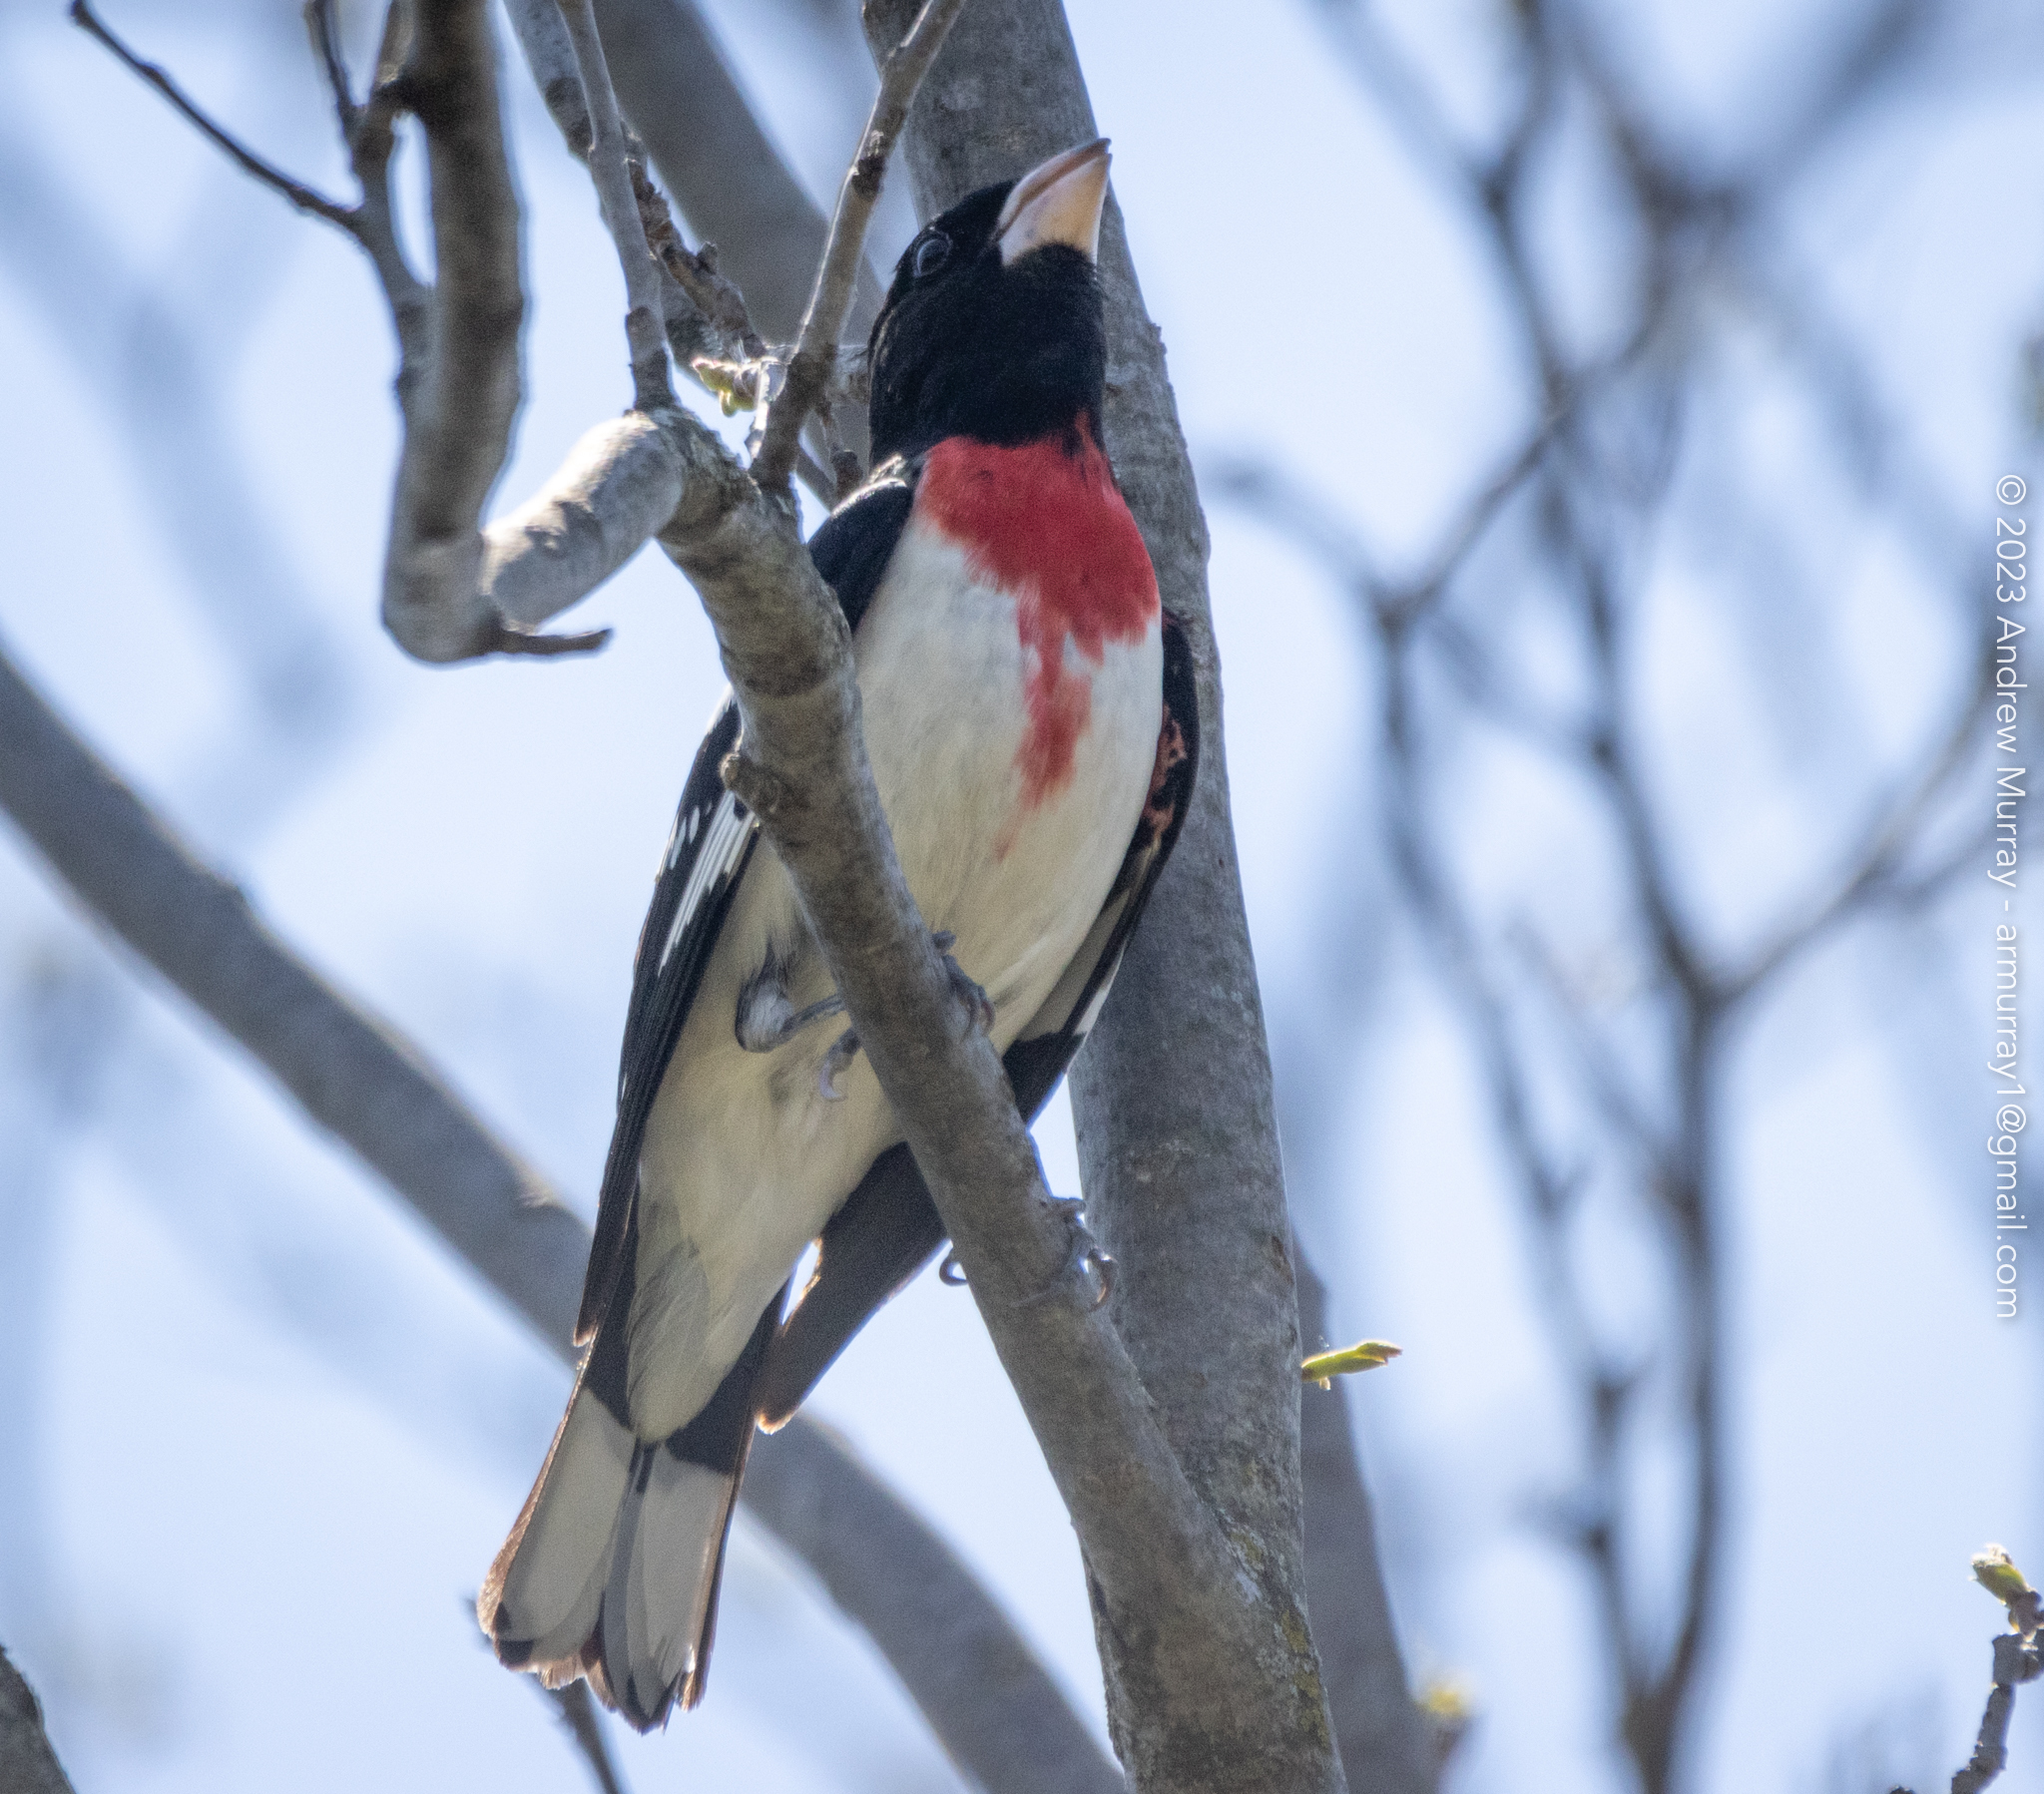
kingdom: Animalia
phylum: Chordata
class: Aves
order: Passeriformes
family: Cardinalidae
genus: Pheucticus
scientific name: Pheucticus ludovicianus
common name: Rose-breasted grosbeak
